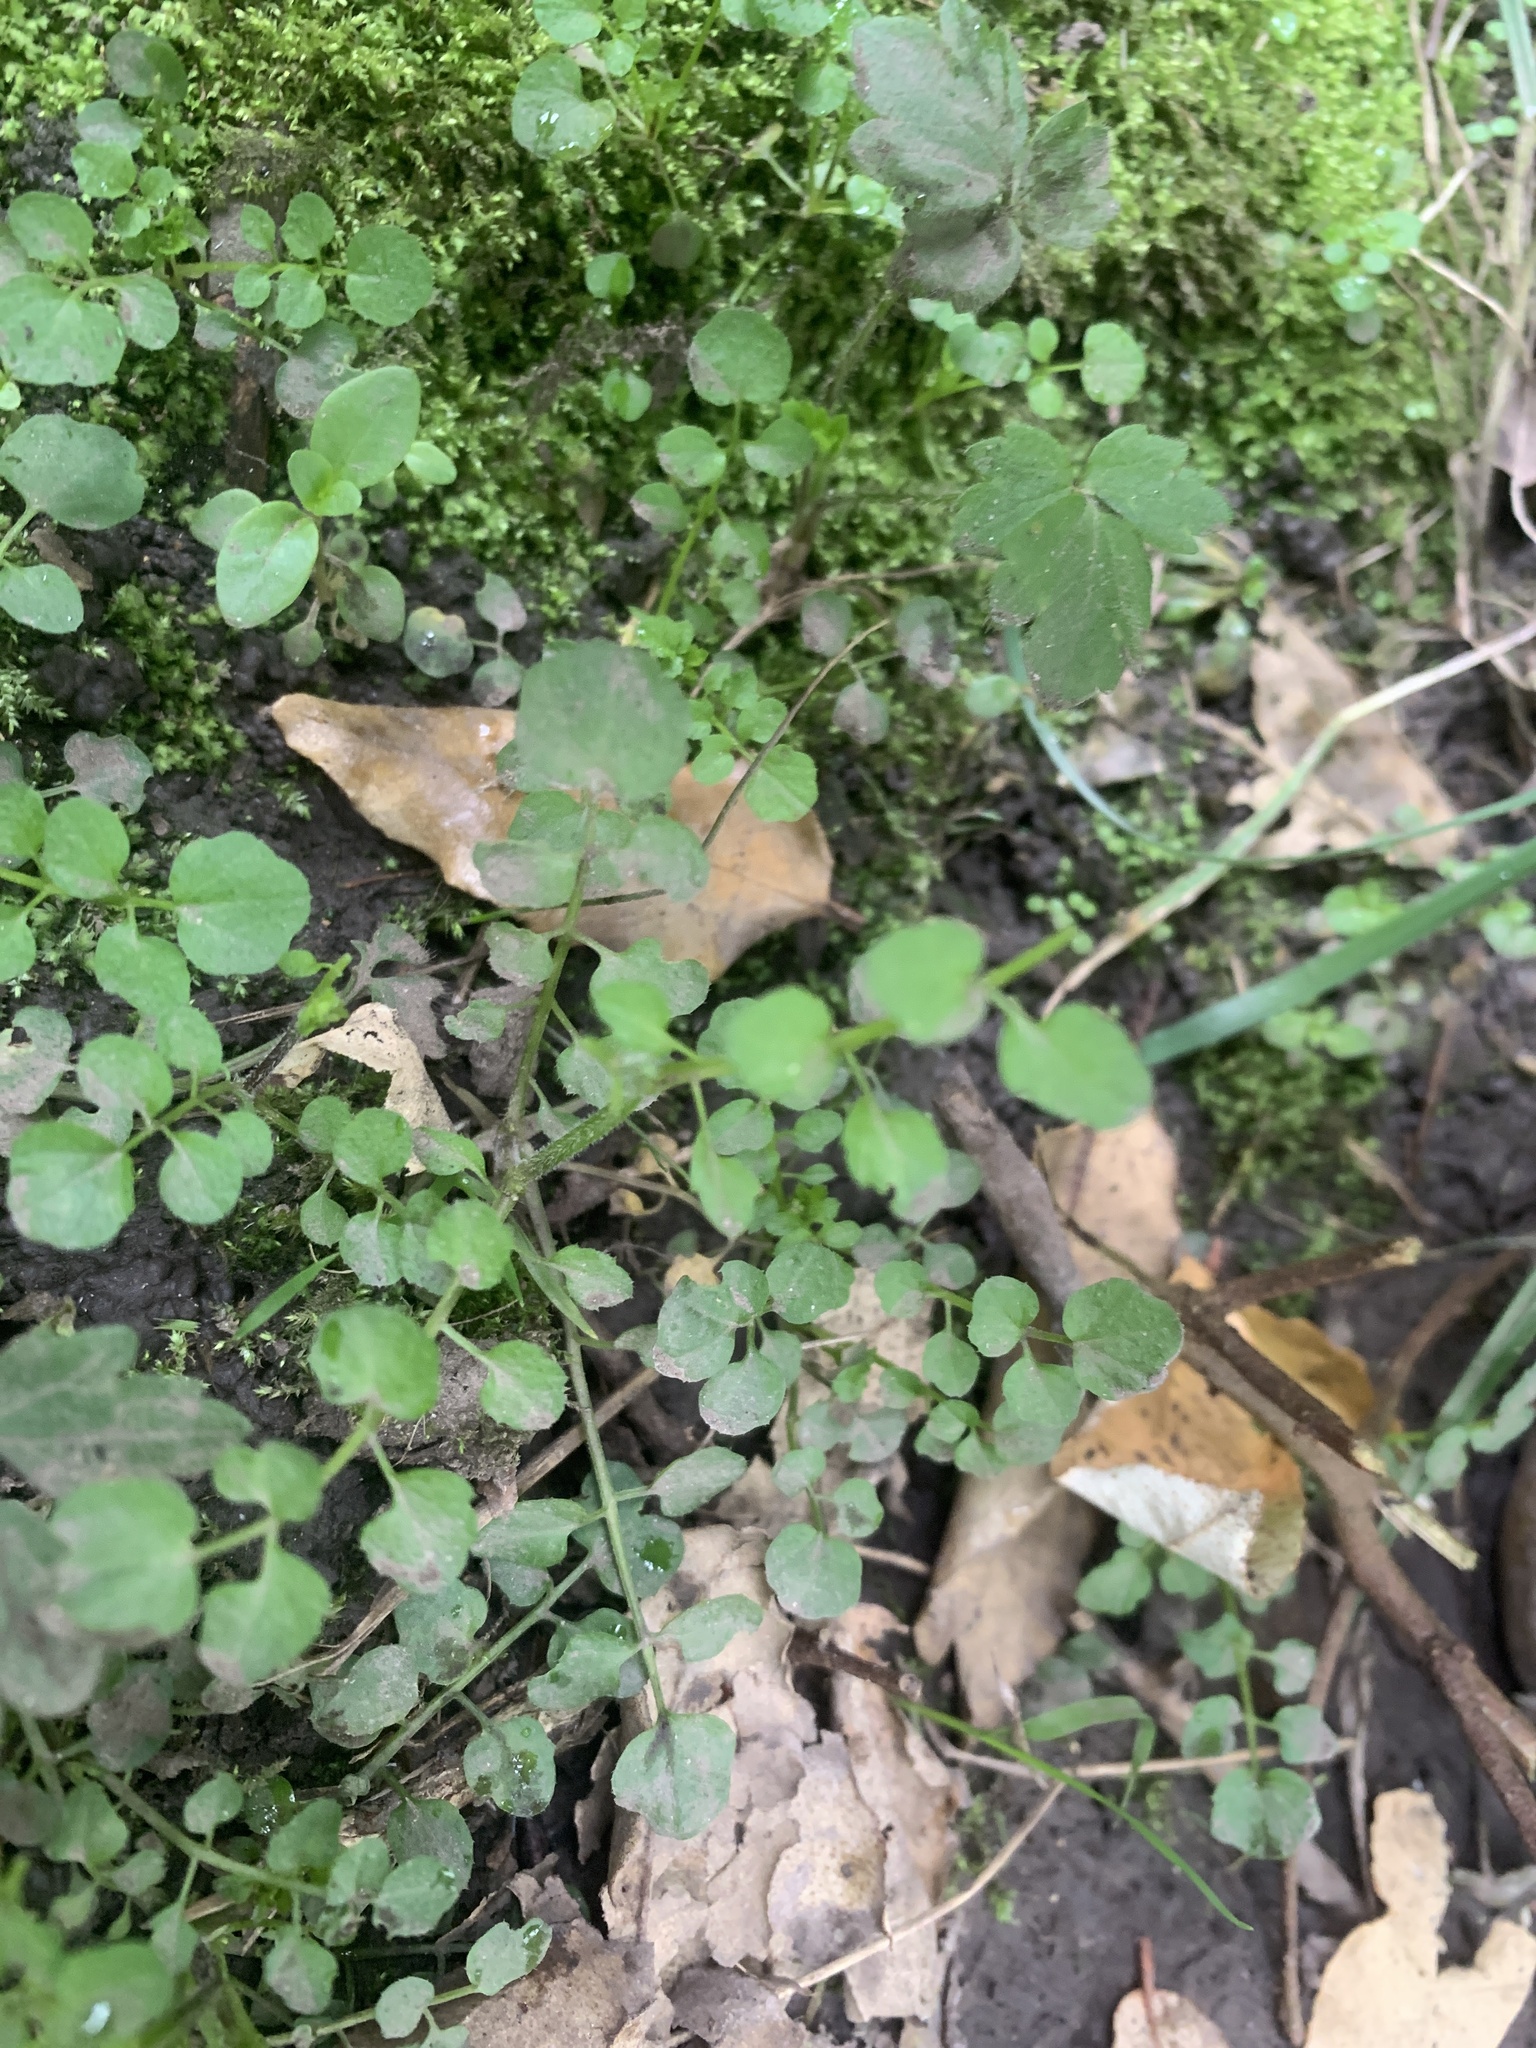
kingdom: Plantae
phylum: Tracheophyta
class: Magnoliopsida
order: Brassicales
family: Brassicaceae
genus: Cardamine
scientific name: Cardamine flexuosa
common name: Woodland bittercress
